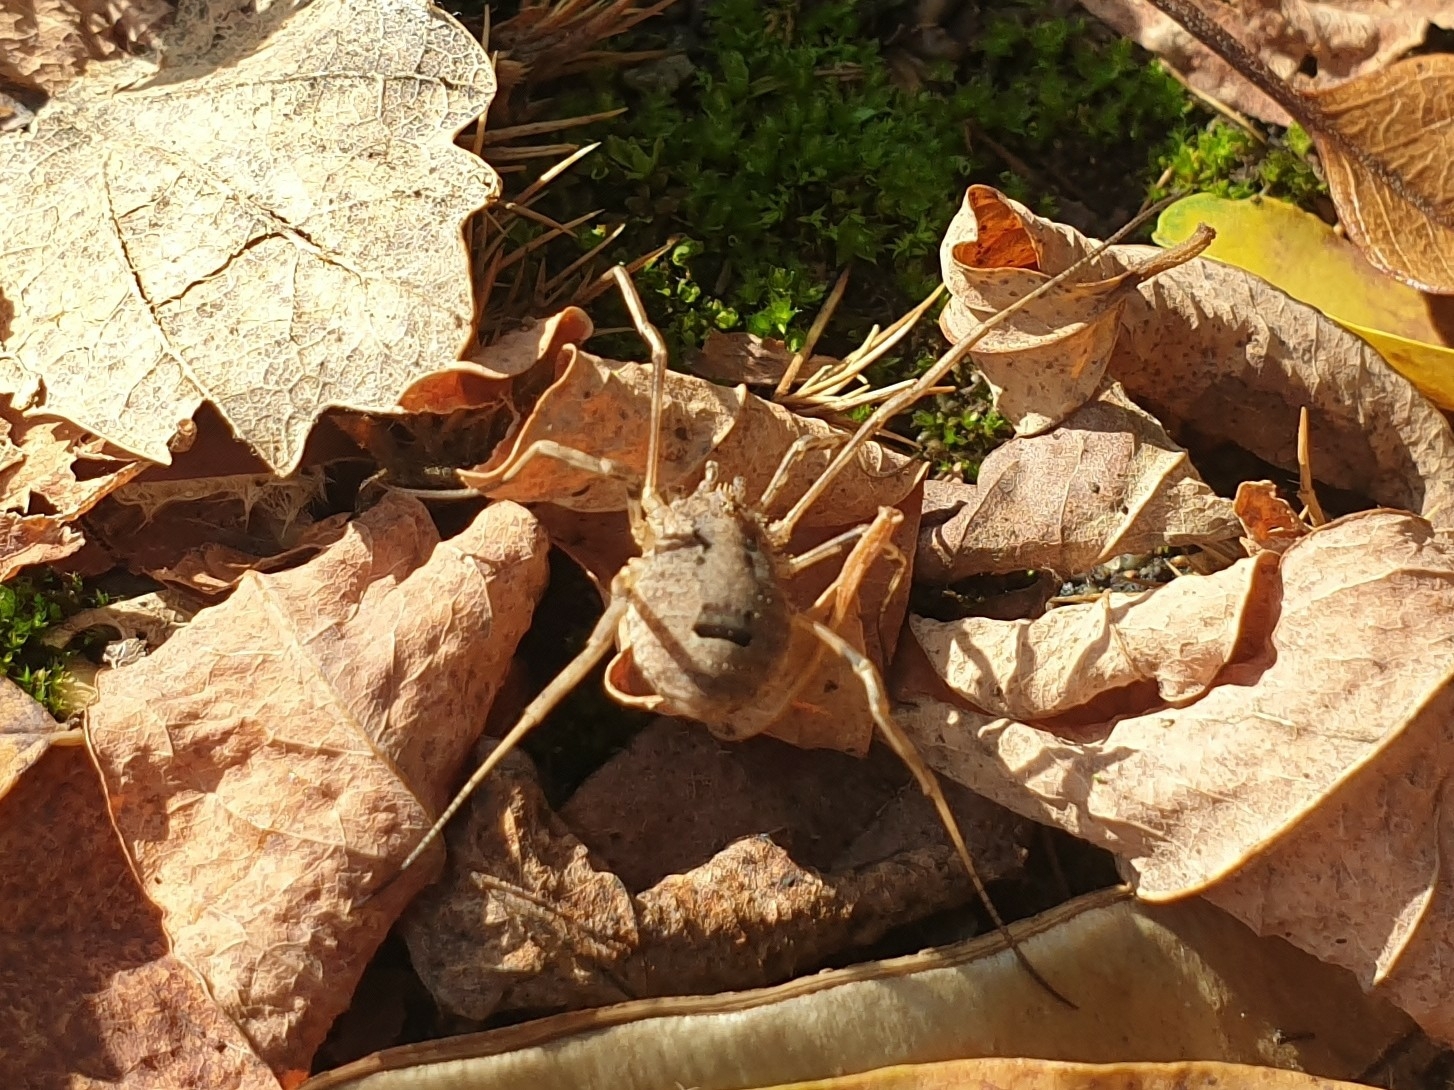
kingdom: Animalia
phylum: Arthropoda
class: Arachnida
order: Opiliones
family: Phalangiidae
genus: Odiellus
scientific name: Odiellus spinosus
